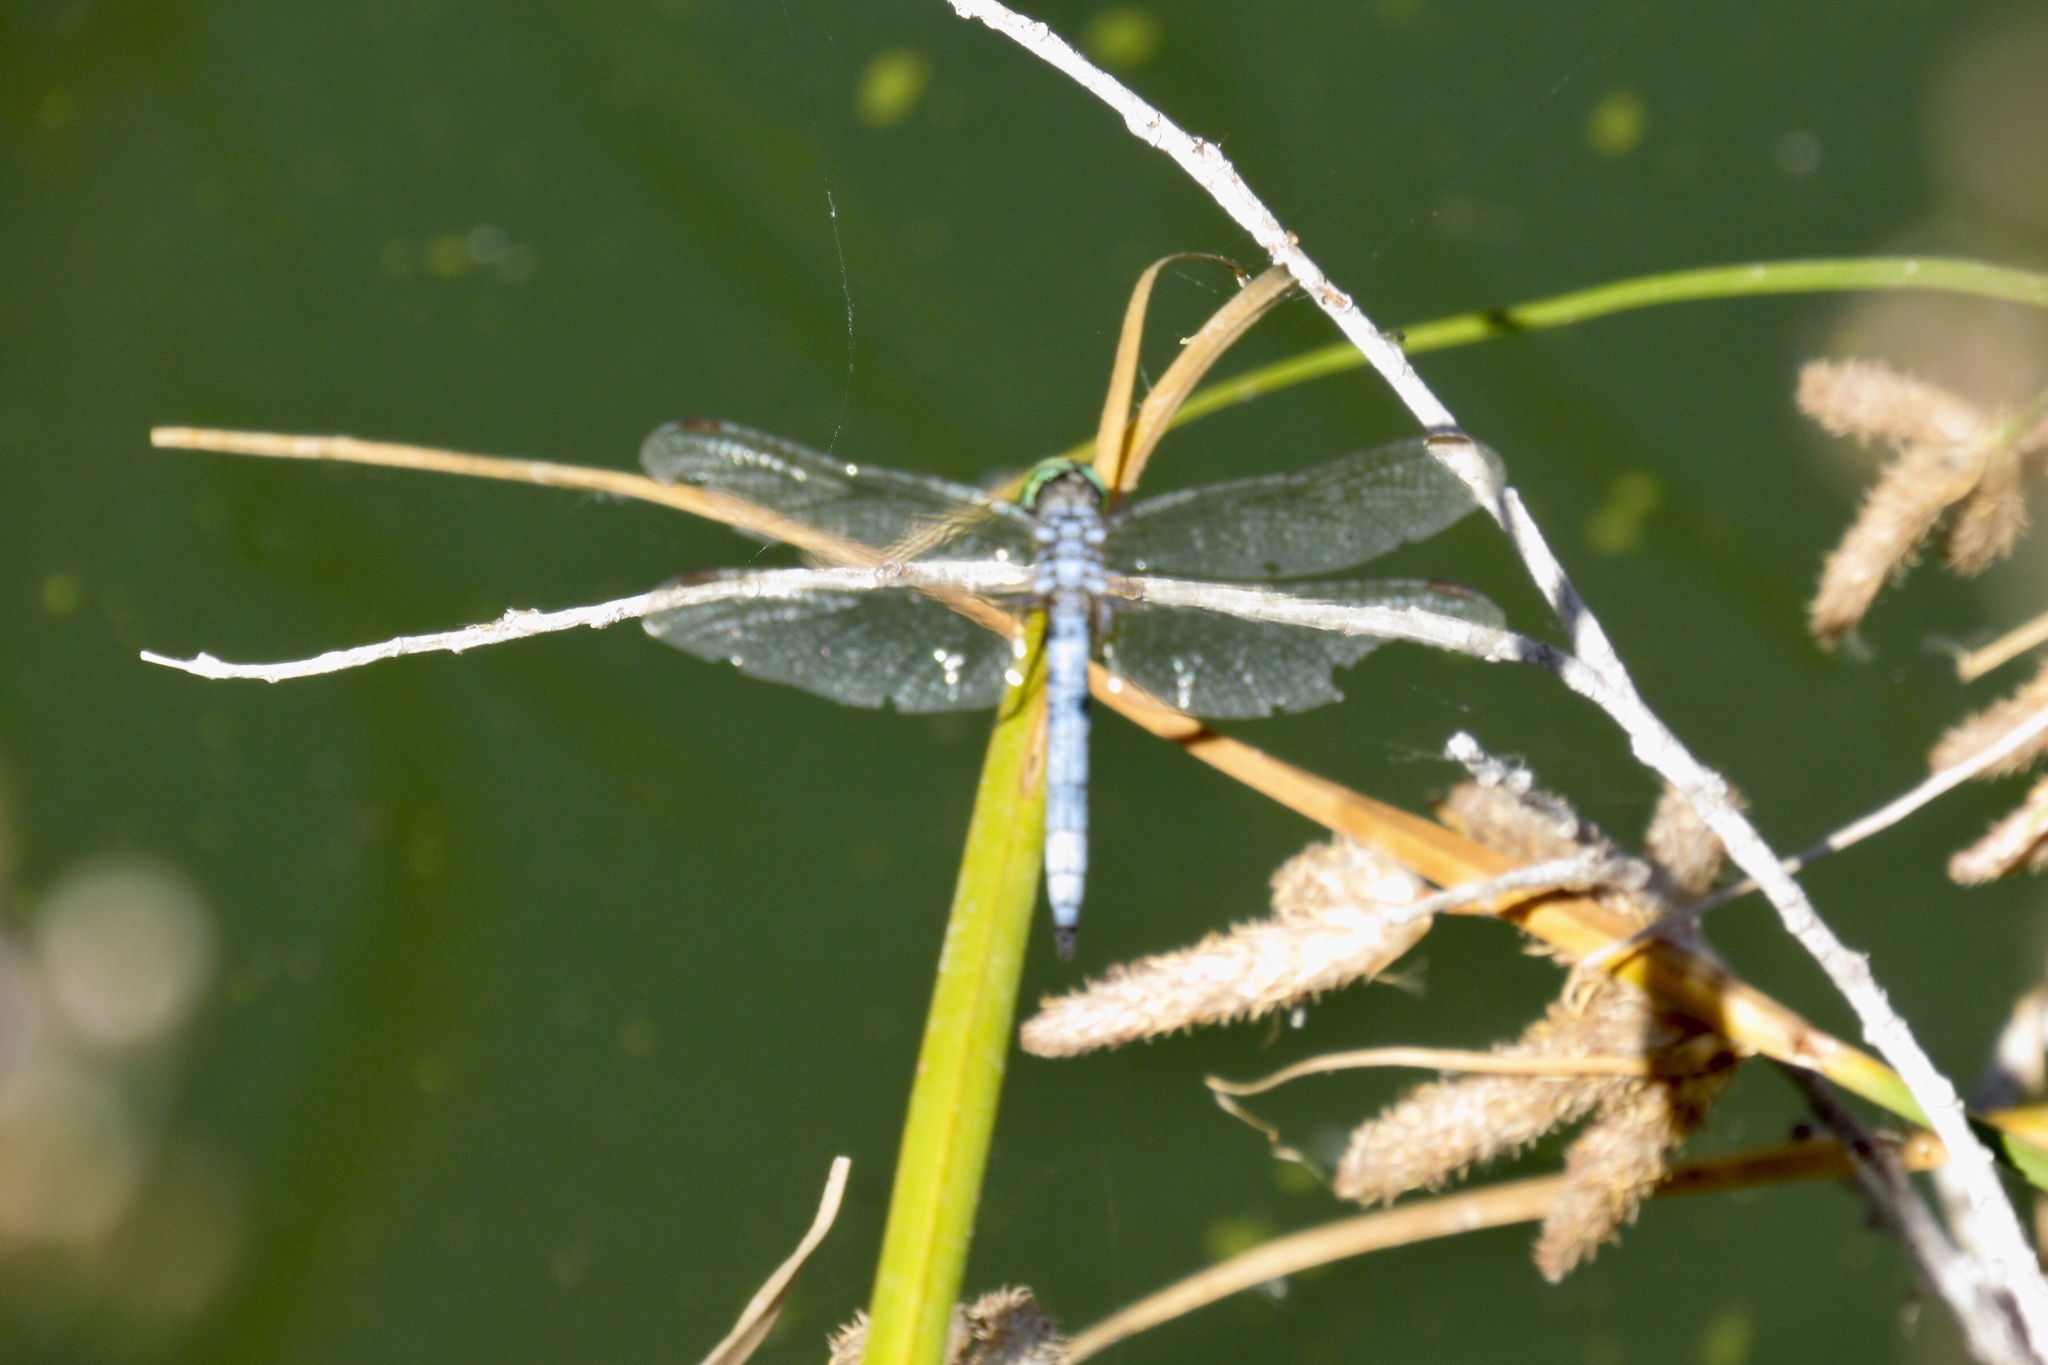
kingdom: Animalia
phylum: Arthropoda
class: Insecta
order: Odonata
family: Libellulidae
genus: Pachydiplax
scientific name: Pachydiplax longipennis
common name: Blue dasher
